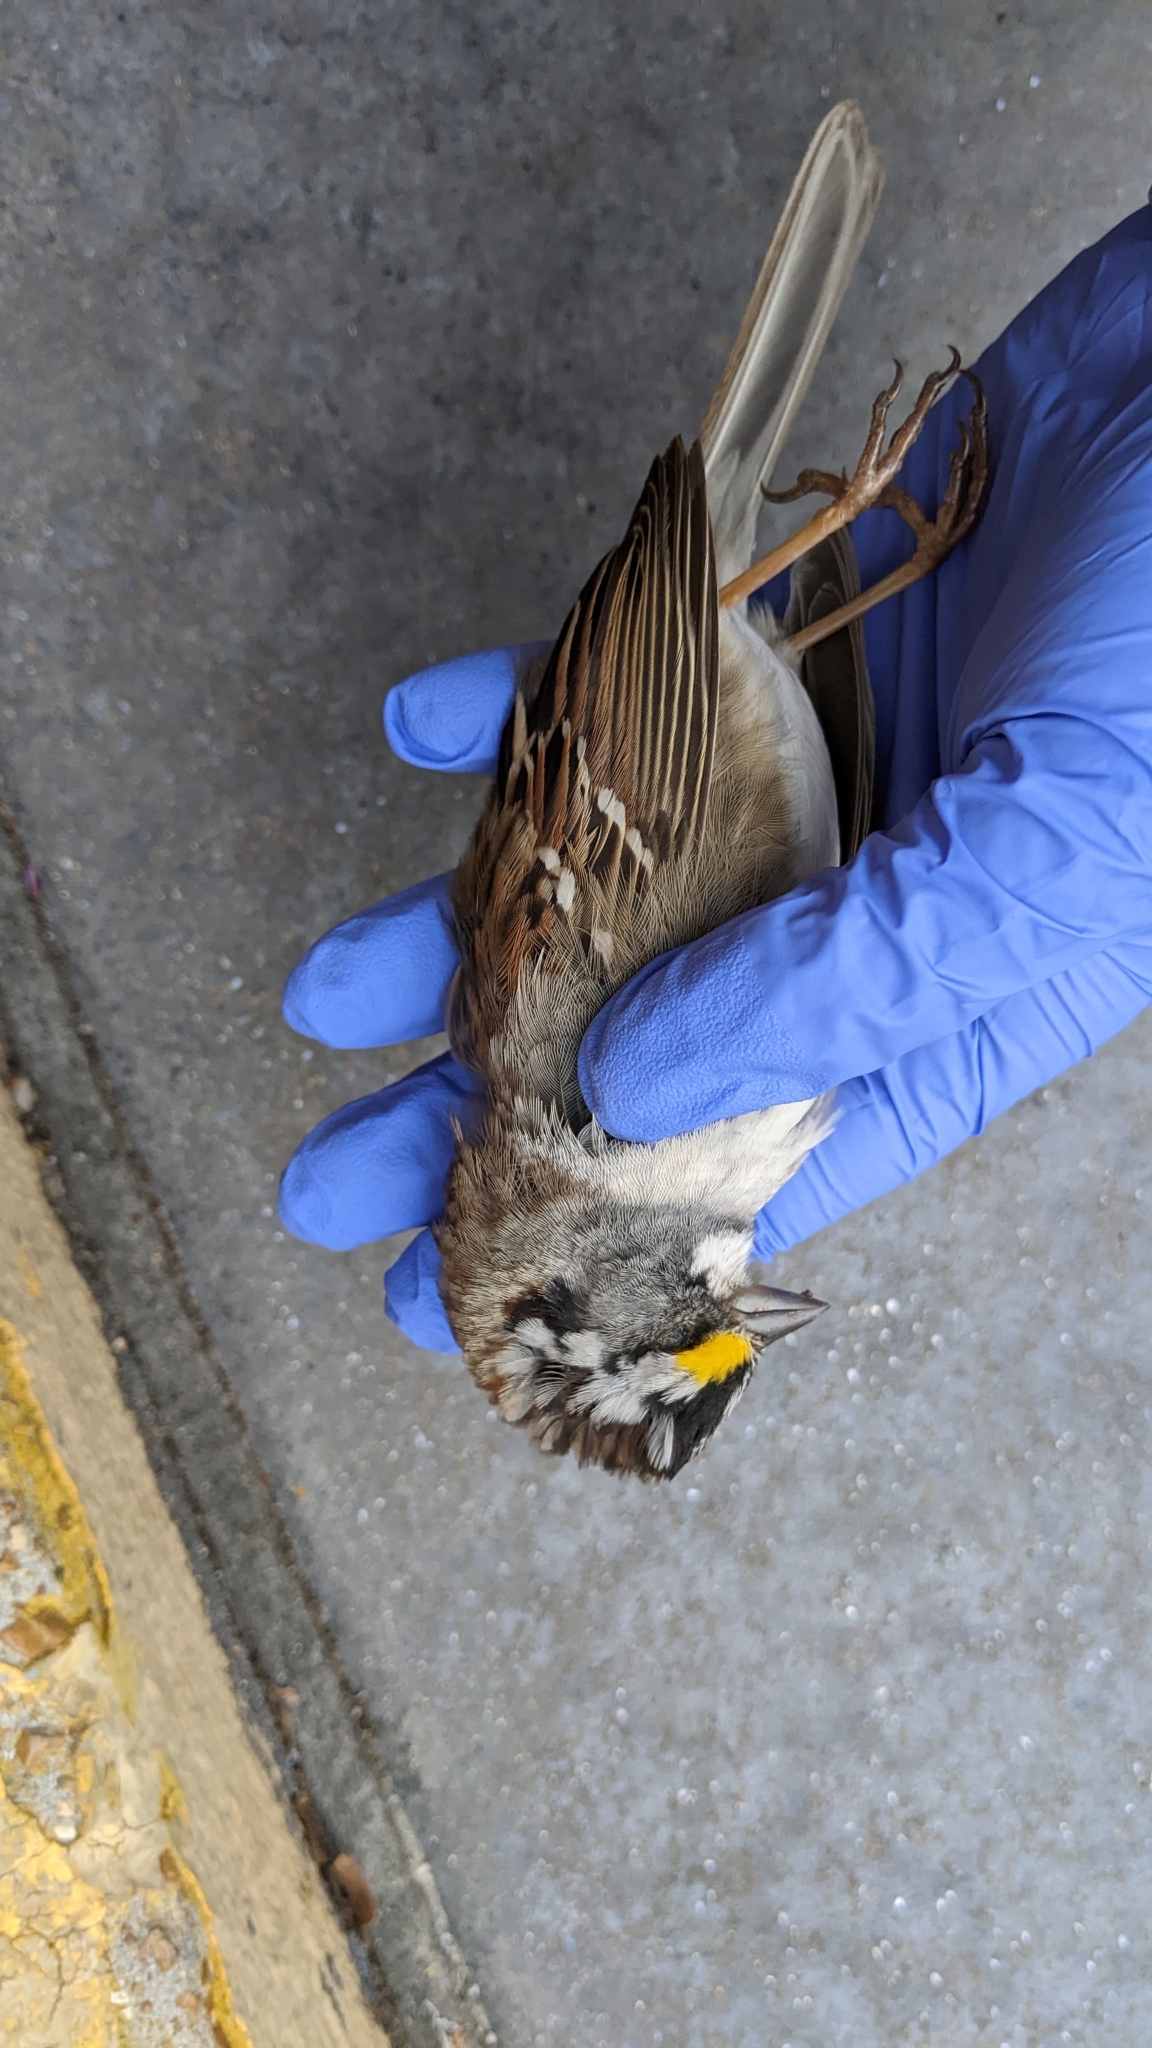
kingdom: Animalia
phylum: Chordata
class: Aves
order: Passeriformes
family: Passerellidae
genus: Zonotrichia
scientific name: Zonotrichia albicollis
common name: White-throated sparrow
